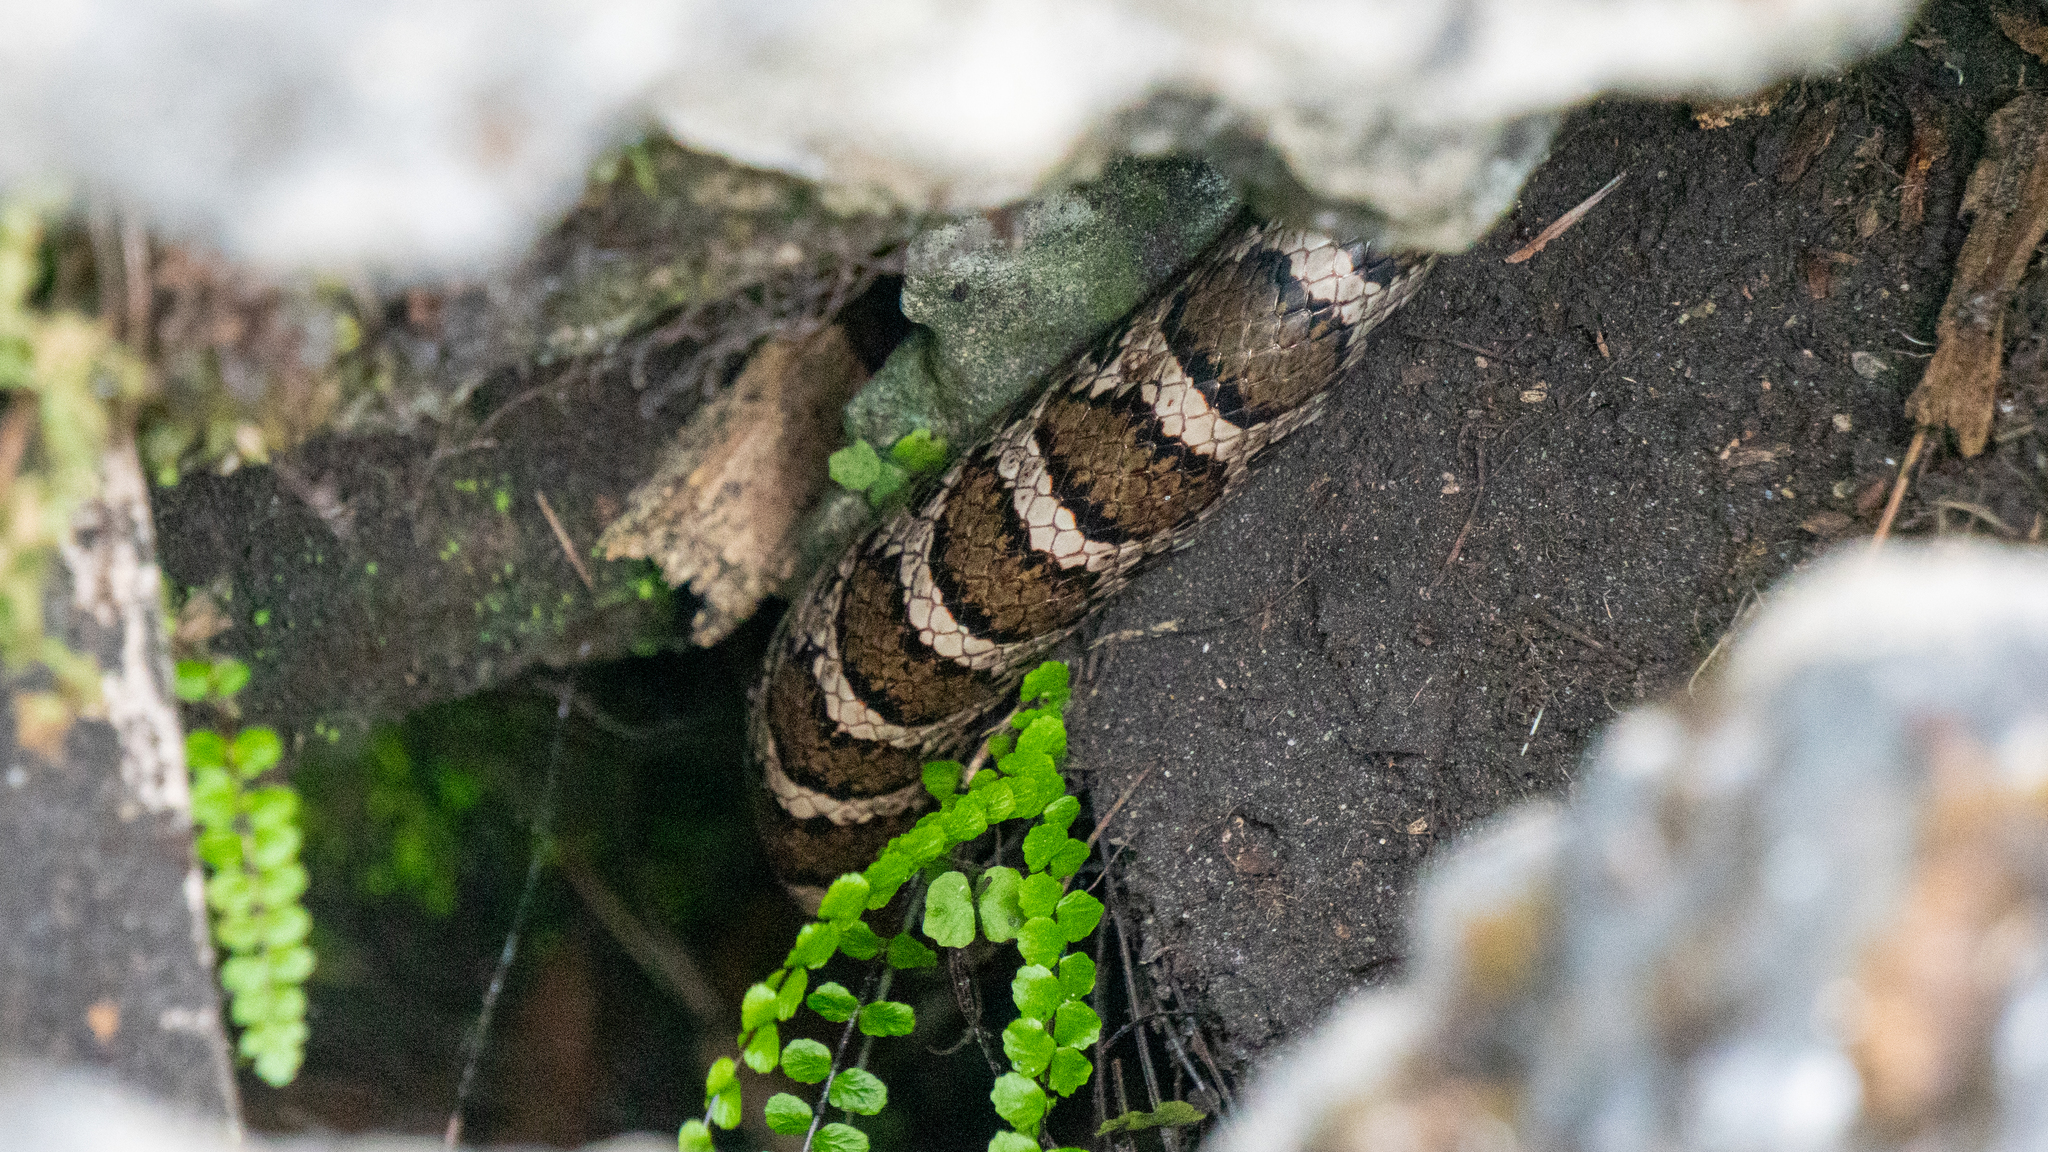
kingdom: Animalia
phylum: Chordata
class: Squamata
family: Colubridae
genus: Lampropeltis
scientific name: Lampropeltis triangulum
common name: Eastern milksnake
